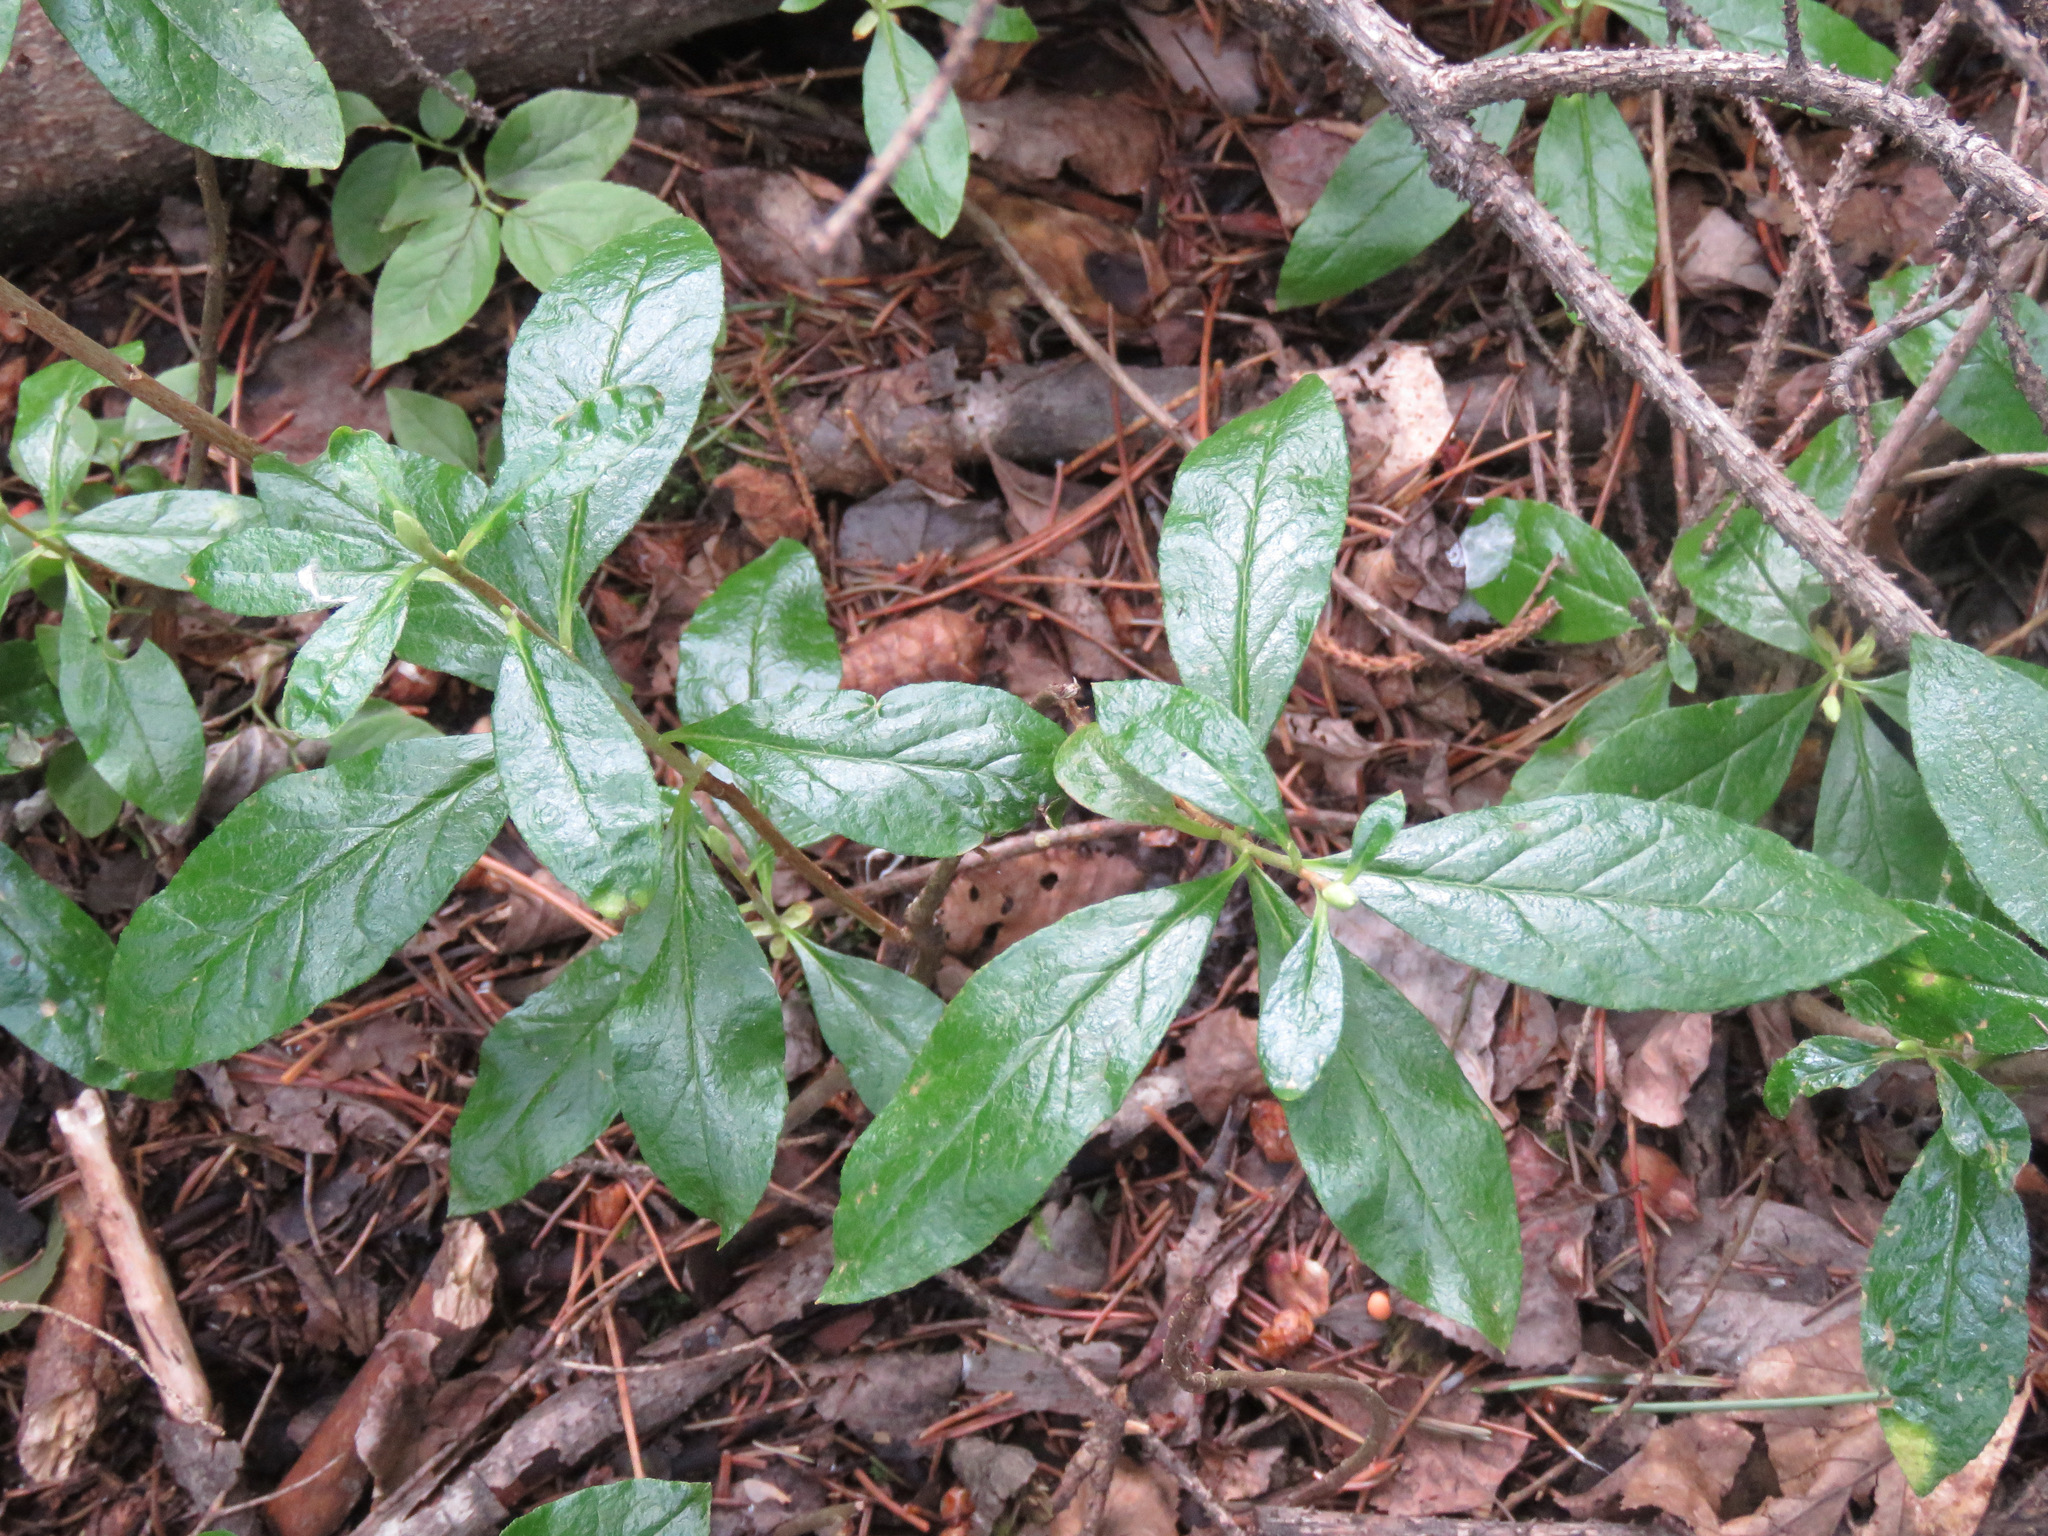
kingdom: Plantae
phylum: Tracheophyta
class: Magnoliopsida
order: Ericales
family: Ericaceae
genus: Rhododendron
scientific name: Rhododendron albiflorum
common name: White rhododendron
